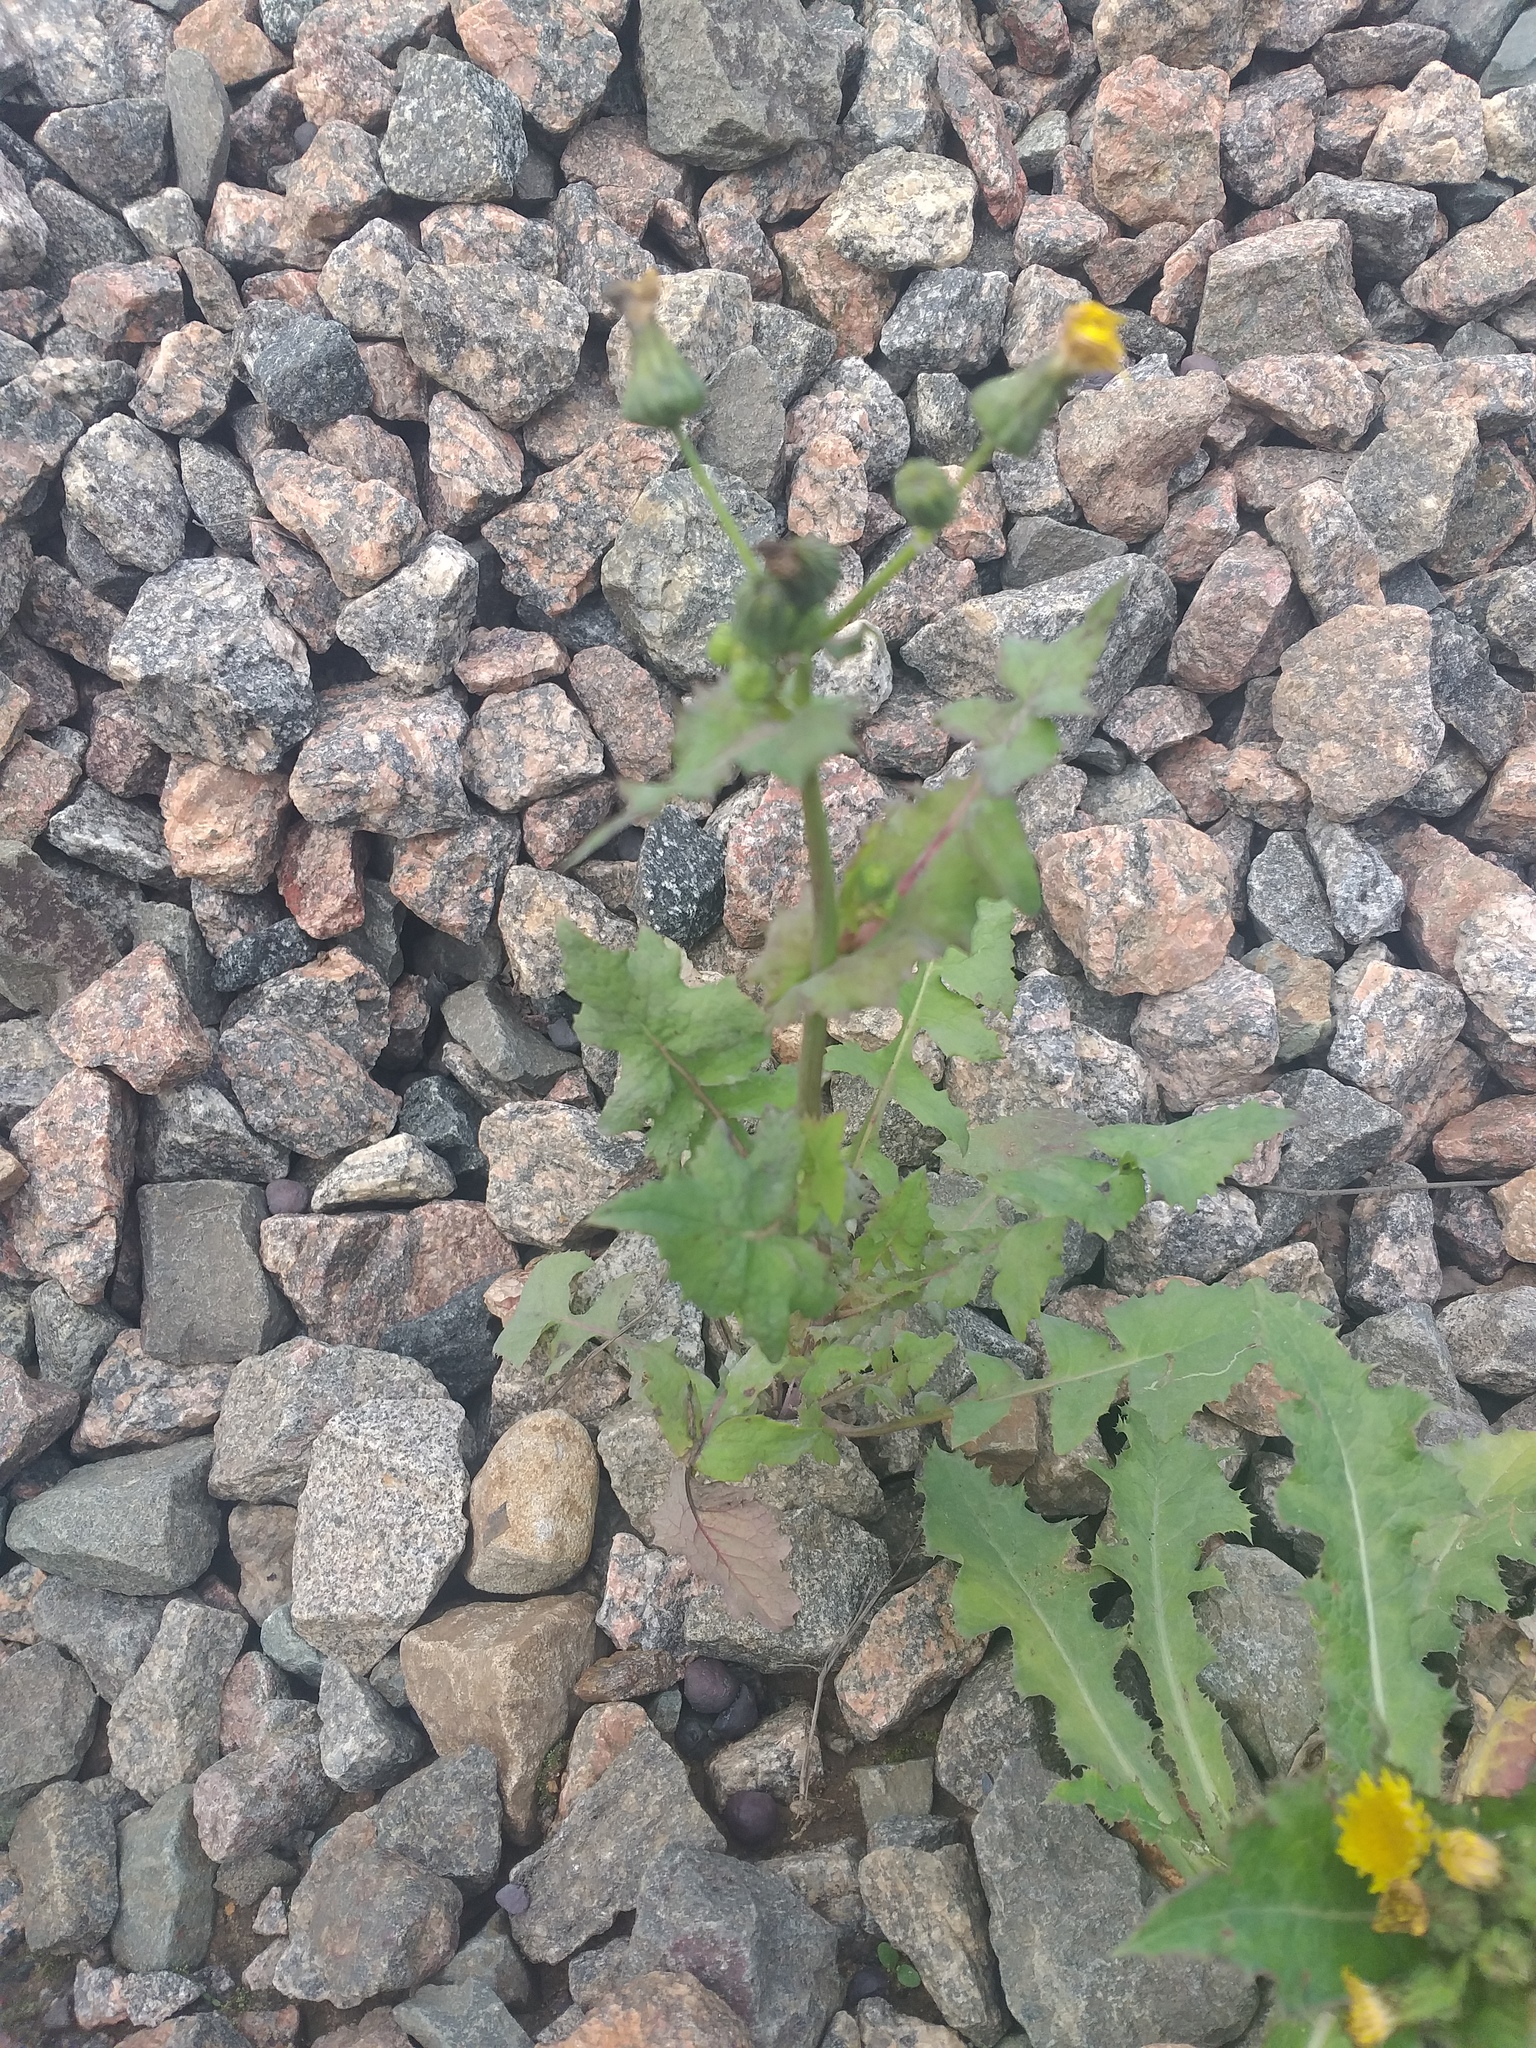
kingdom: Plantae
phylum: Tracheophyta
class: Magnoliopsida
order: Asterales
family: Asteraceae
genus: Sonchus
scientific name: Sonchus oleraceus
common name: Common sowthistle
